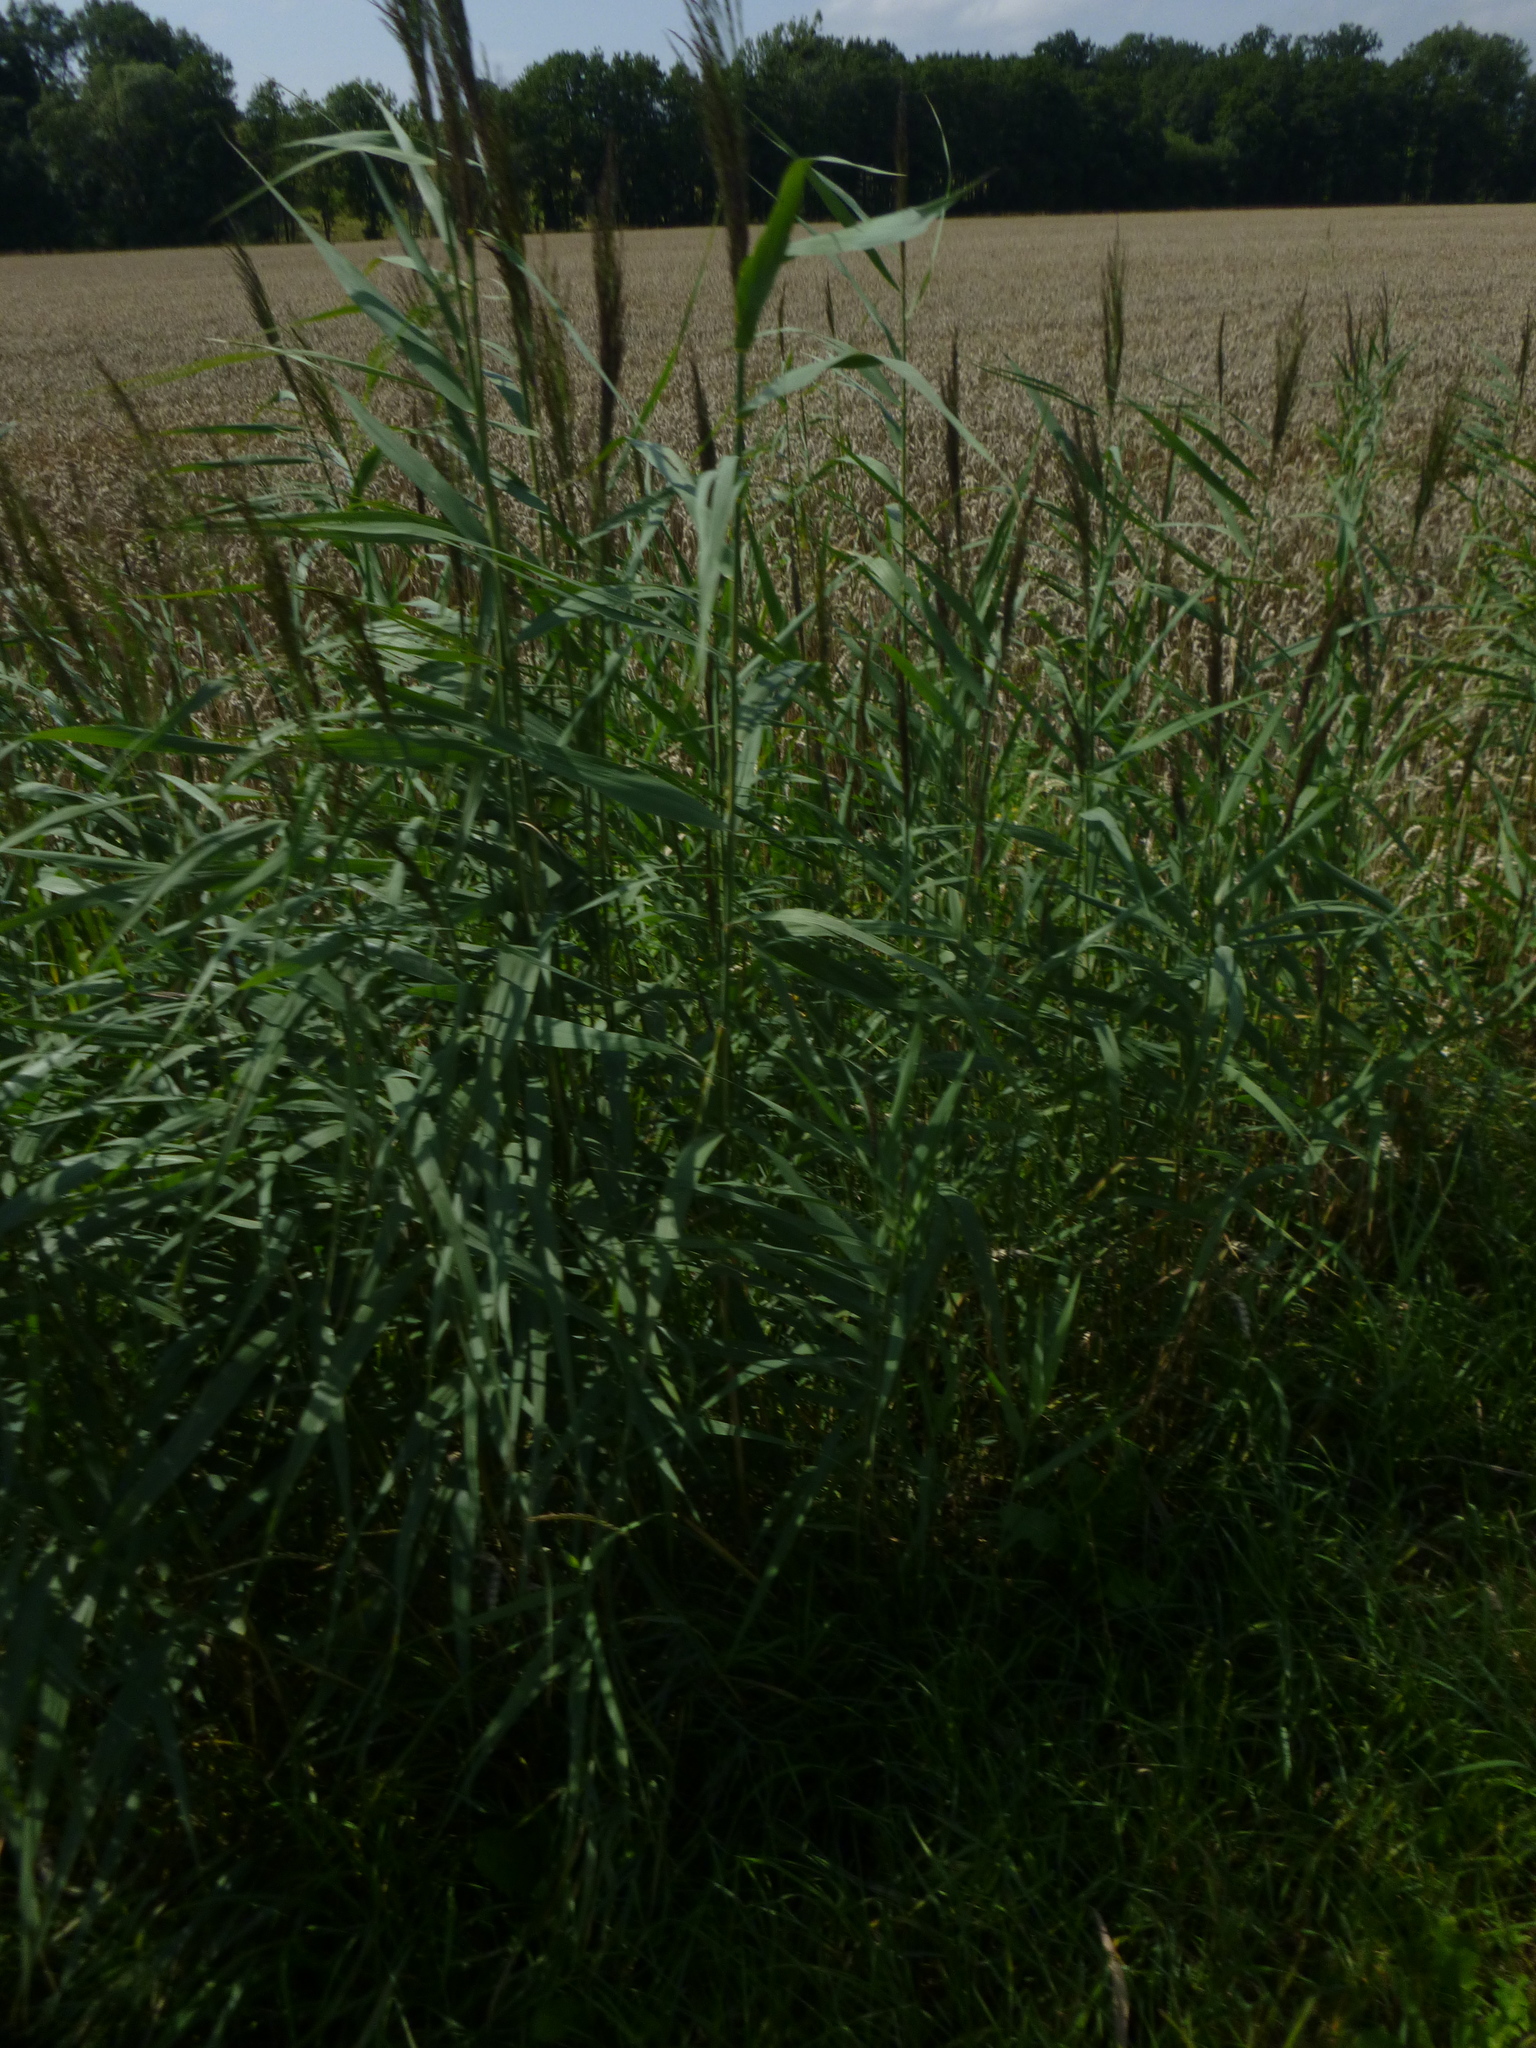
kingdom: Plantae
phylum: Tracheophyta
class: Liliopsida
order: Poales
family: Poaceae
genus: Phragmites
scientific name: Phragmites australis
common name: Common reed
